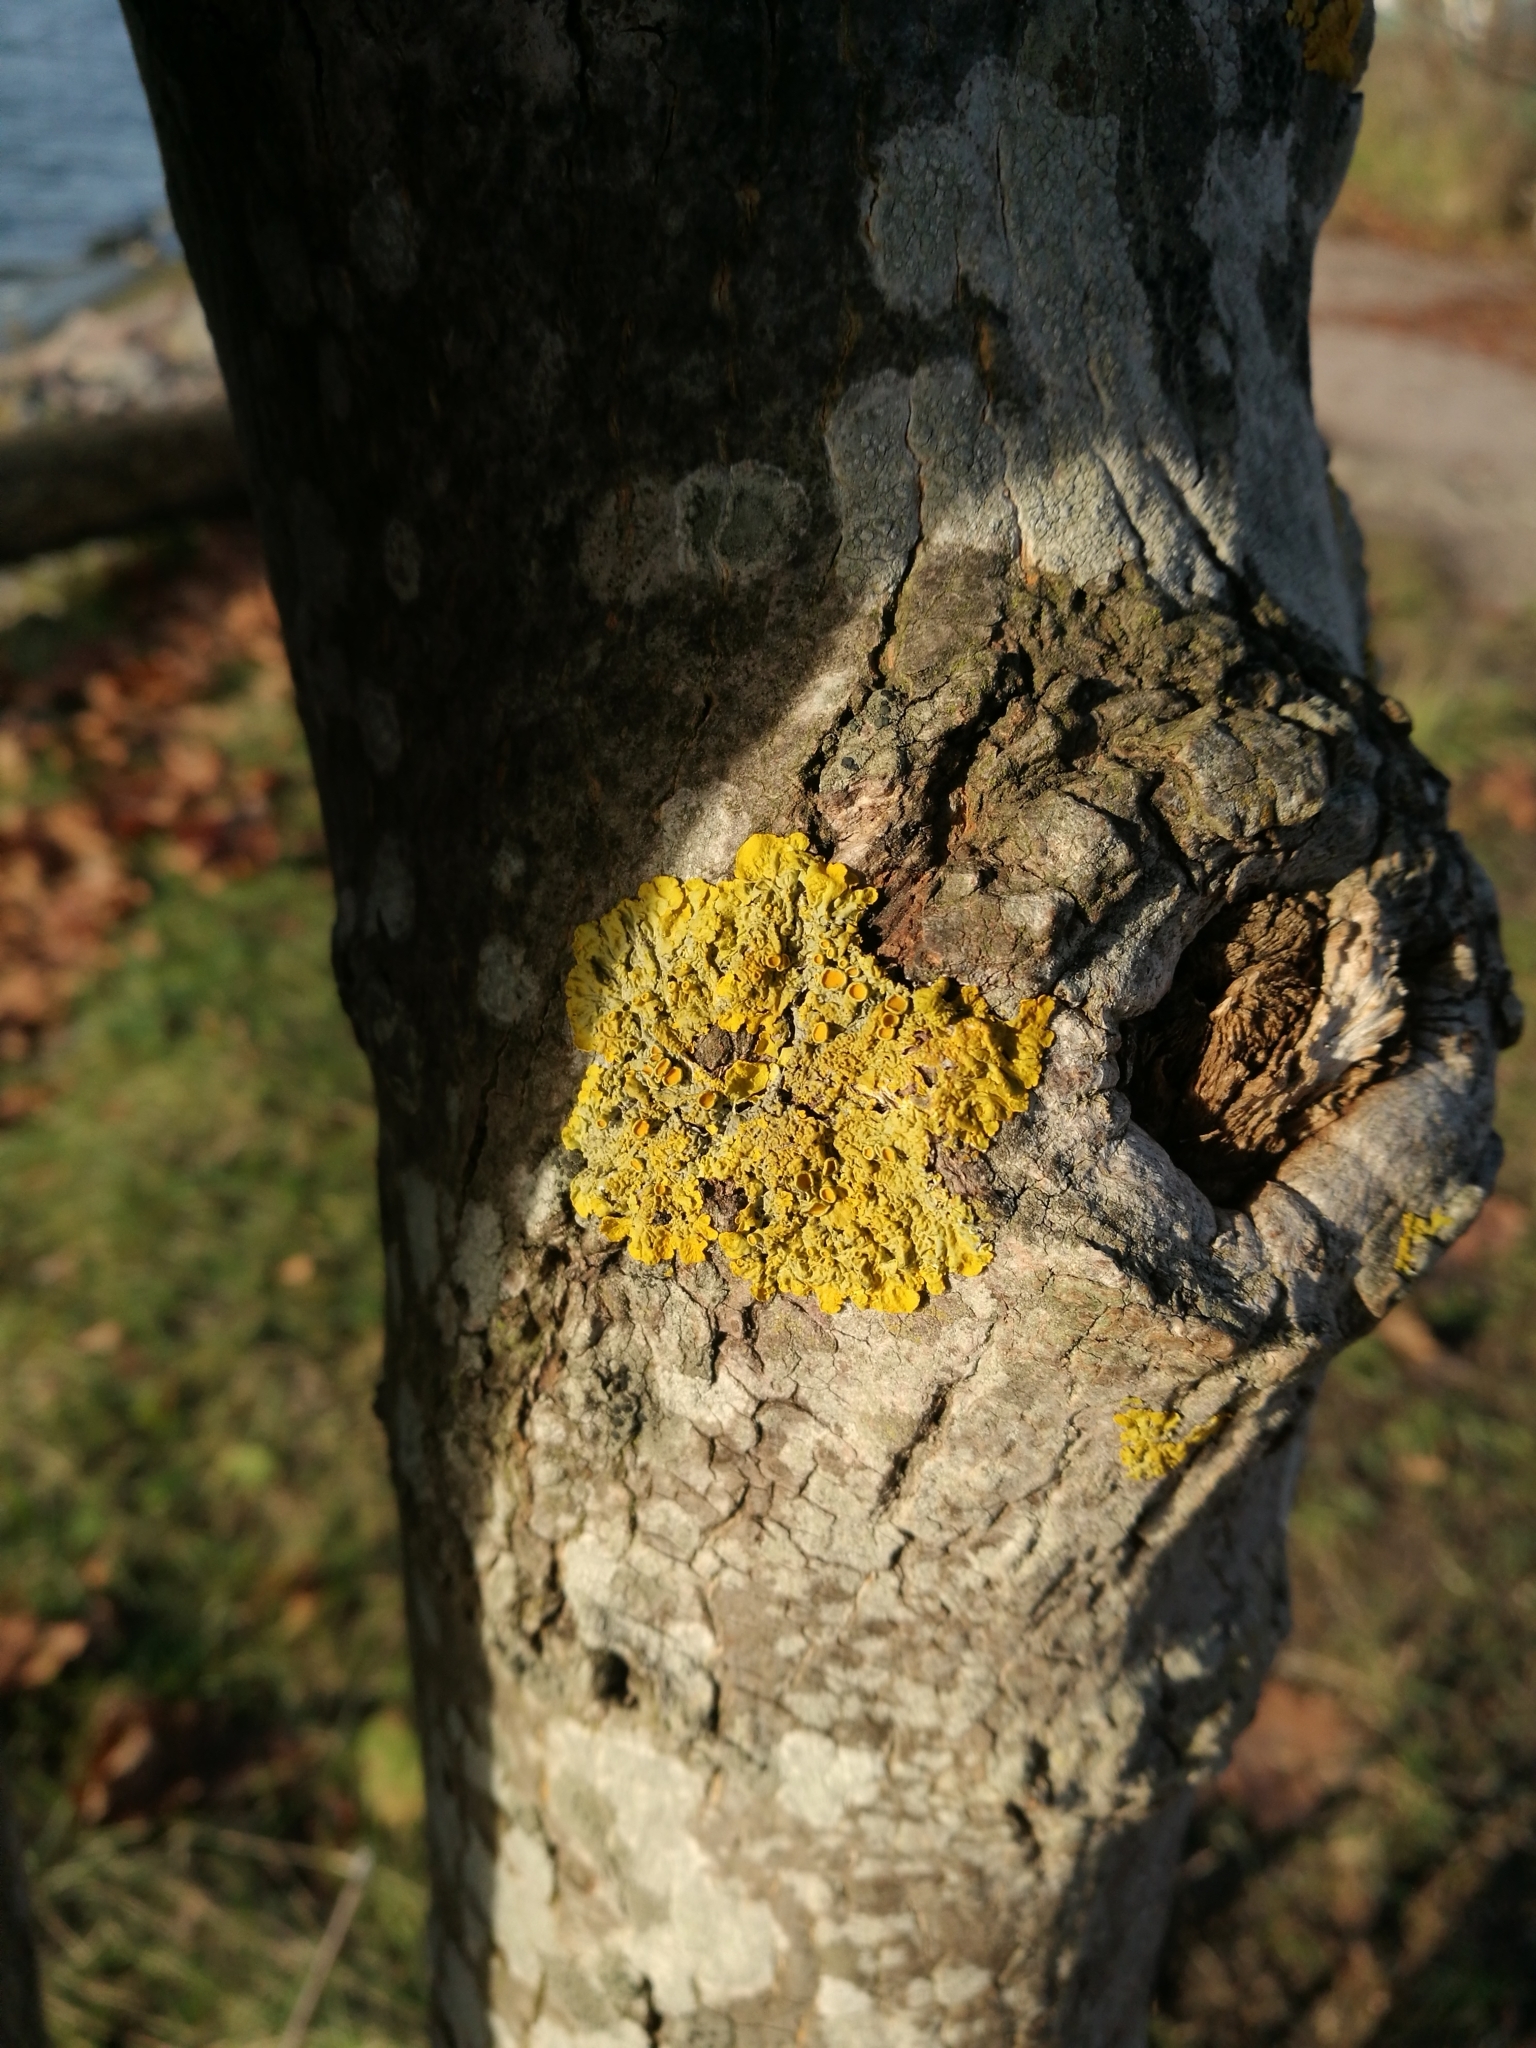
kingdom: Fungi
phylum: Ascomycota
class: Lecanoromycetes
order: Teloschistales
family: Teloschistaceae
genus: Xanthoria
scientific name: Xanthoria parietina
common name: Common orange lichen
